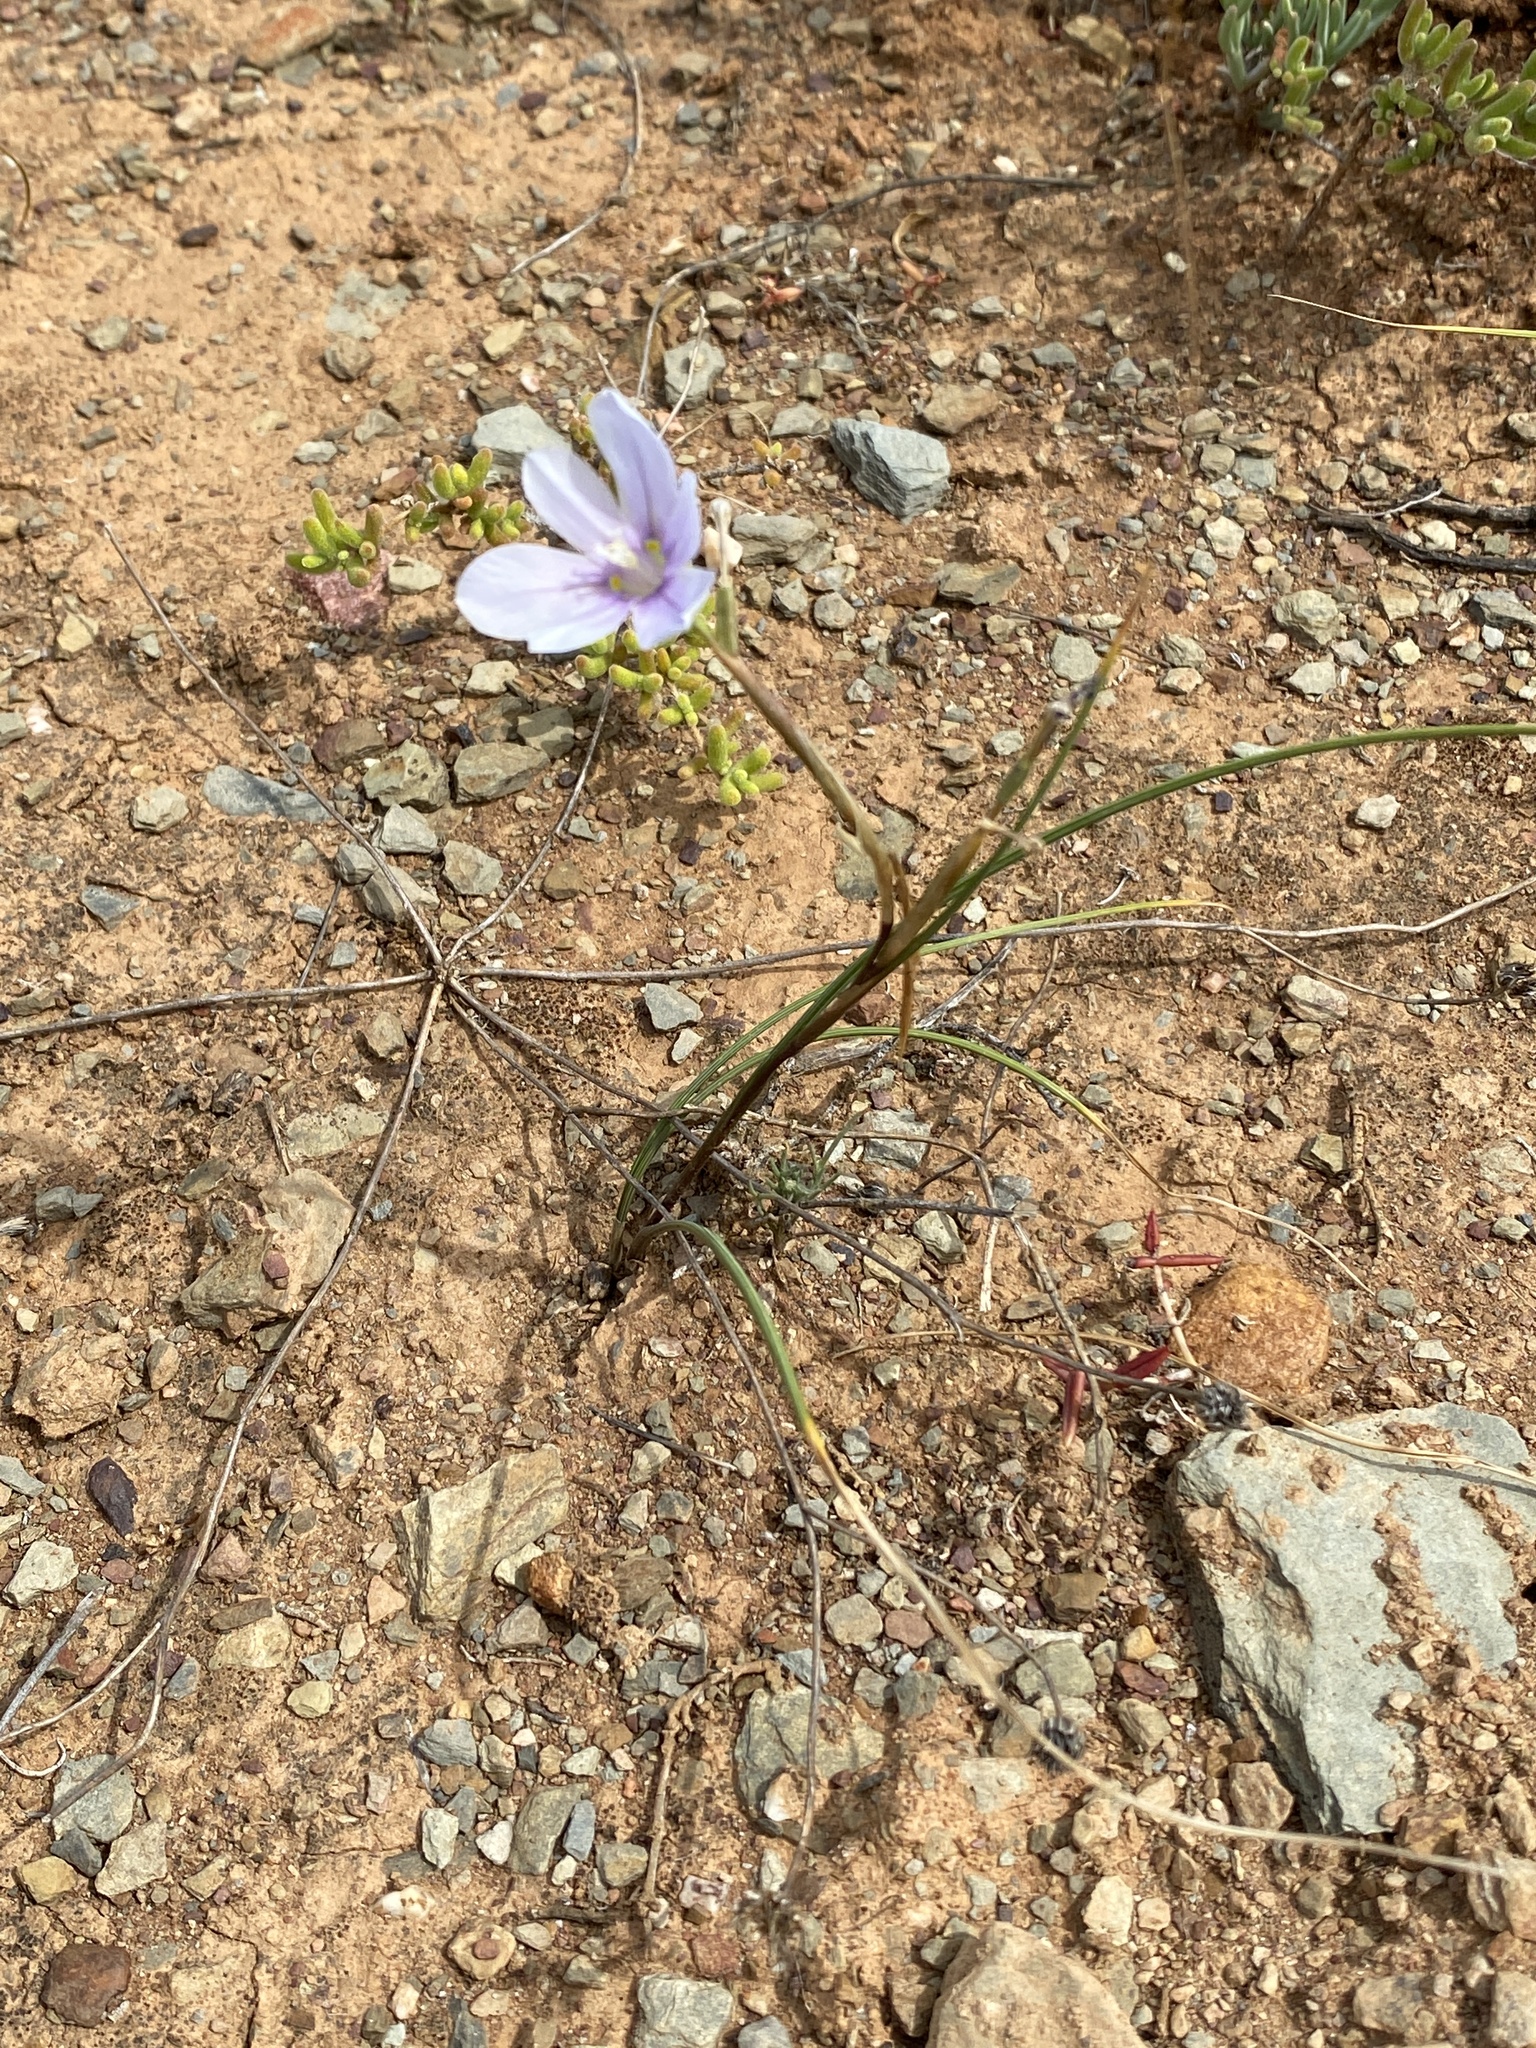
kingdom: Plantae
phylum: Tracheophyta
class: Liliopsida
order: Asparagales
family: Iridaceae
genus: Moraea
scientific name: Moraea polyanthos
